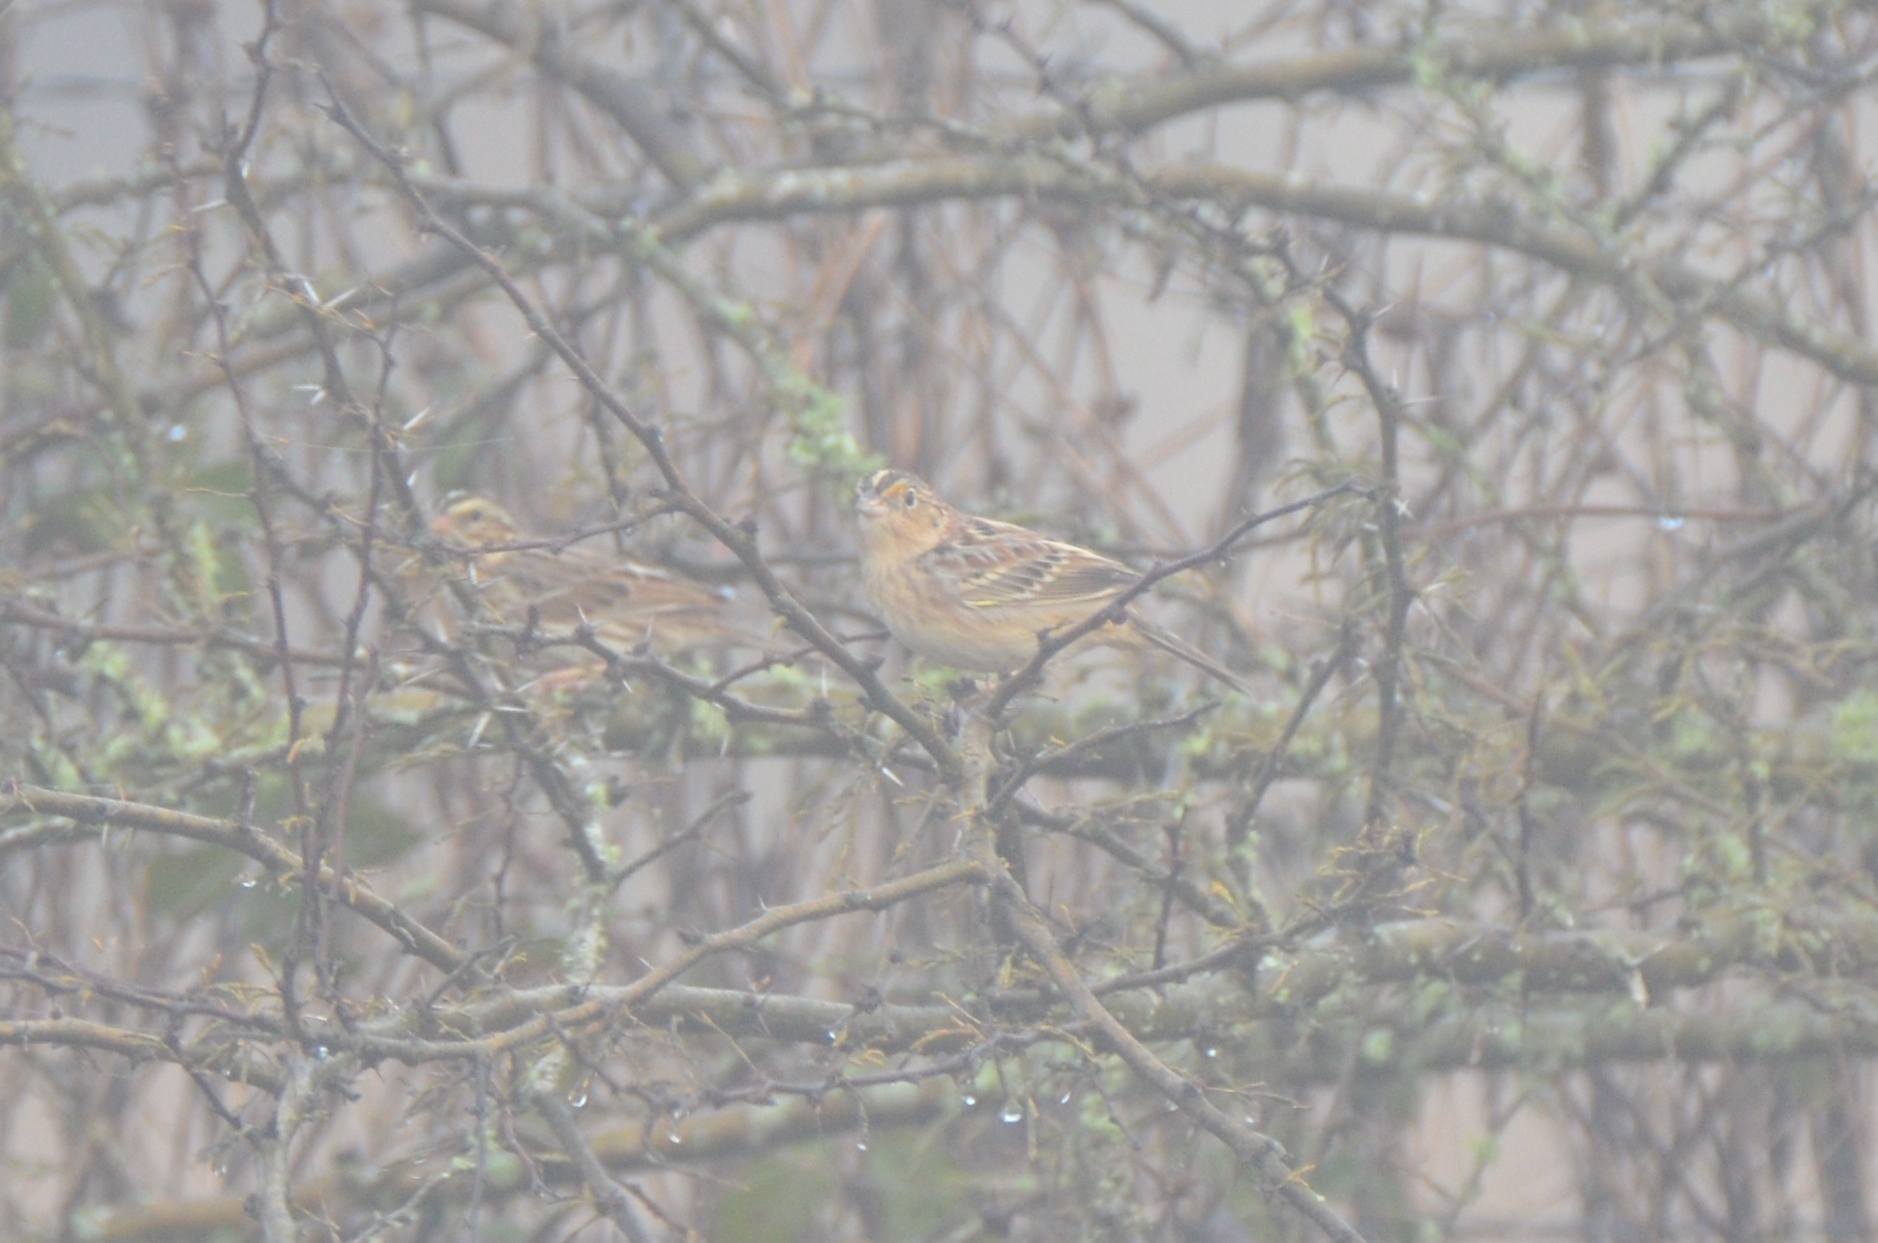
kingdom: Animalia
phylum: Chordata
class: Aves
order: Passeriformes
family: Passerellidae
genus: Ammodramus
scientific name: Ammodramus savannarum
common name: Grasshopper sparrow
